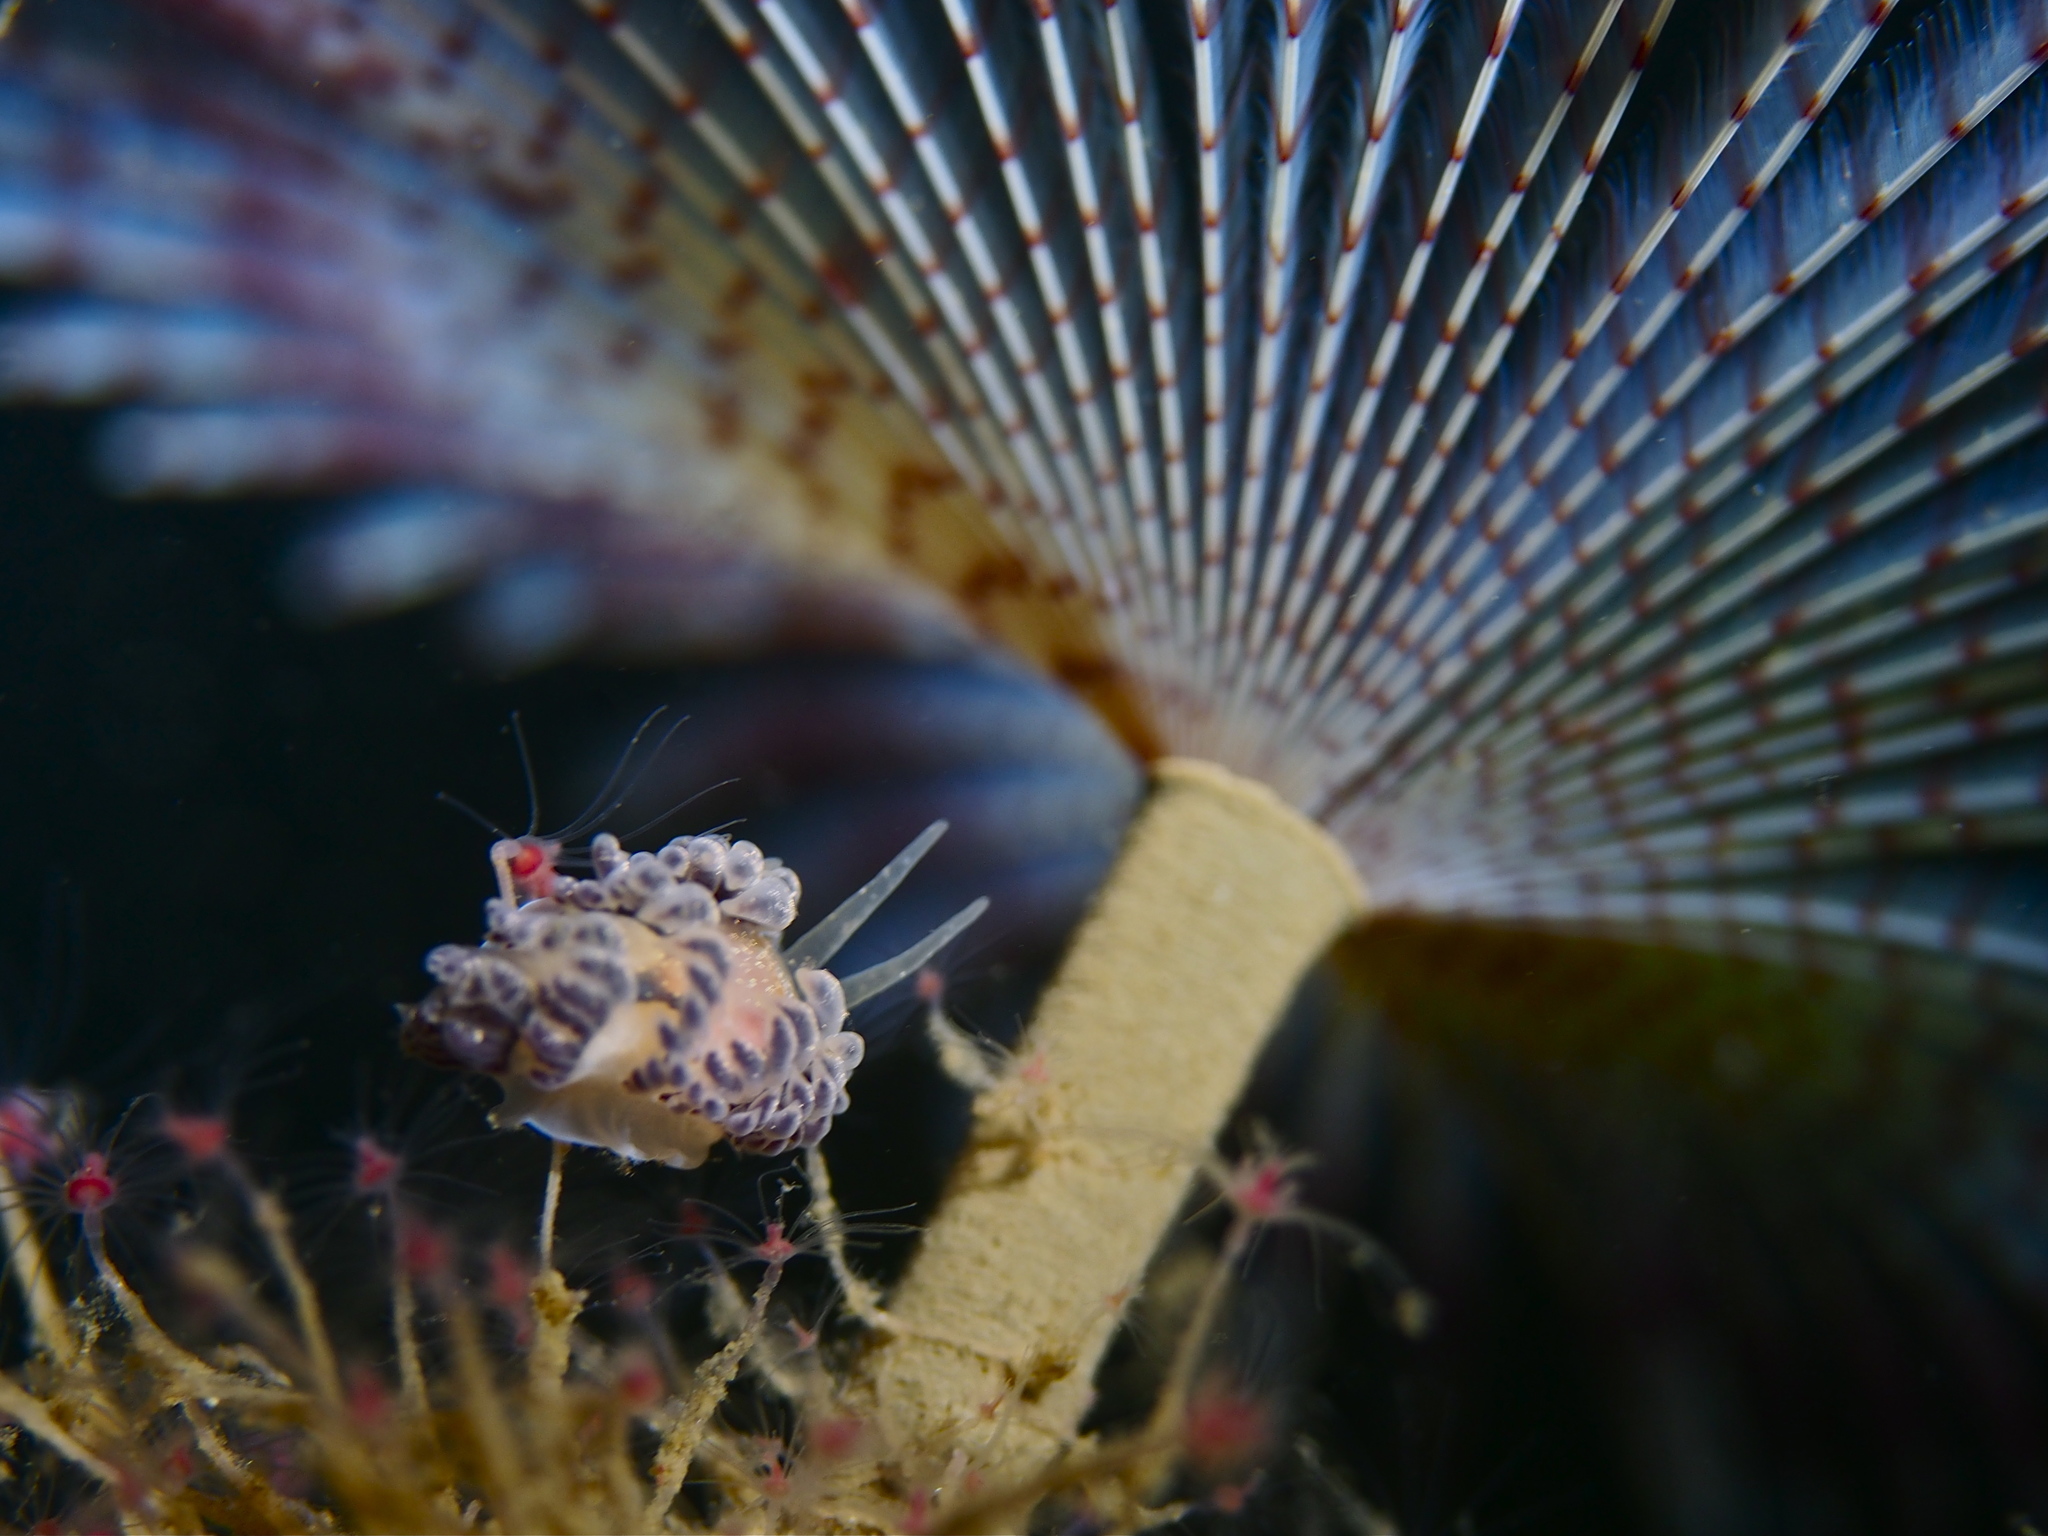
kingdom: Animalia
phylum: Mollusca
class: Gastropoda
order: Nudibranchia
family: Cumanotidae
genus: Cumanotus
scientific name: Cumanotus beaumonti
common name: Polyp aeolis
